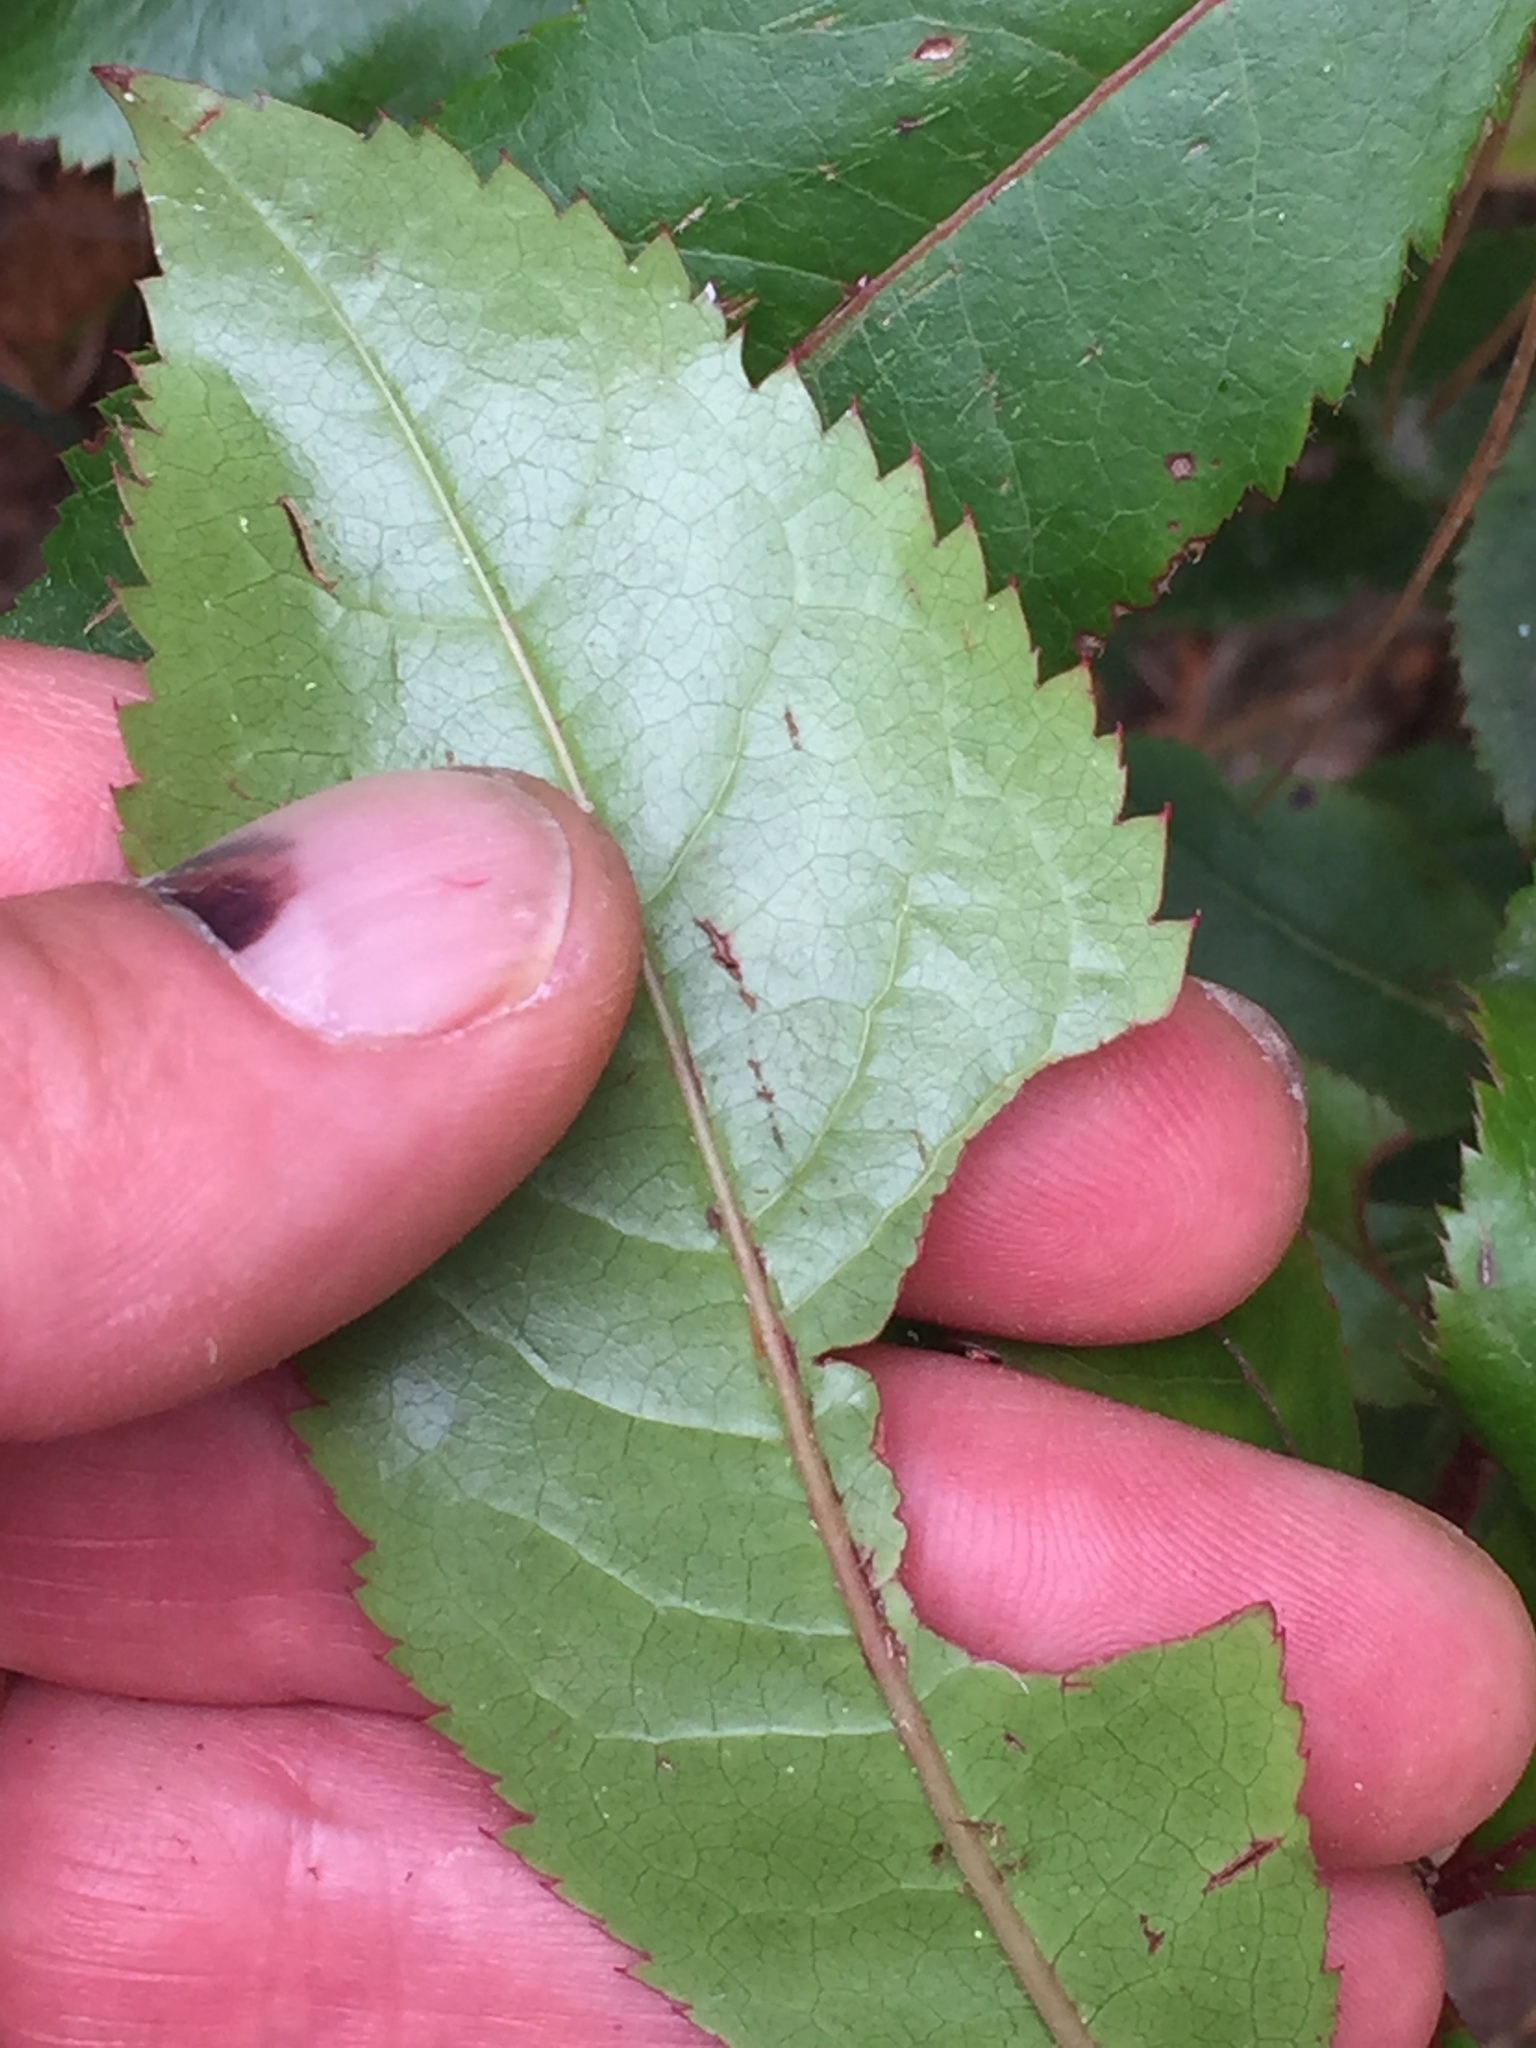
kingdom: Plantae
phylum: Tracheophyta
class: Magnoliopsida
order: Ericales
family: Ericaceae
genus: Arbutus
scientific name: Arbutus unedo
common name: Strawberry-tree
